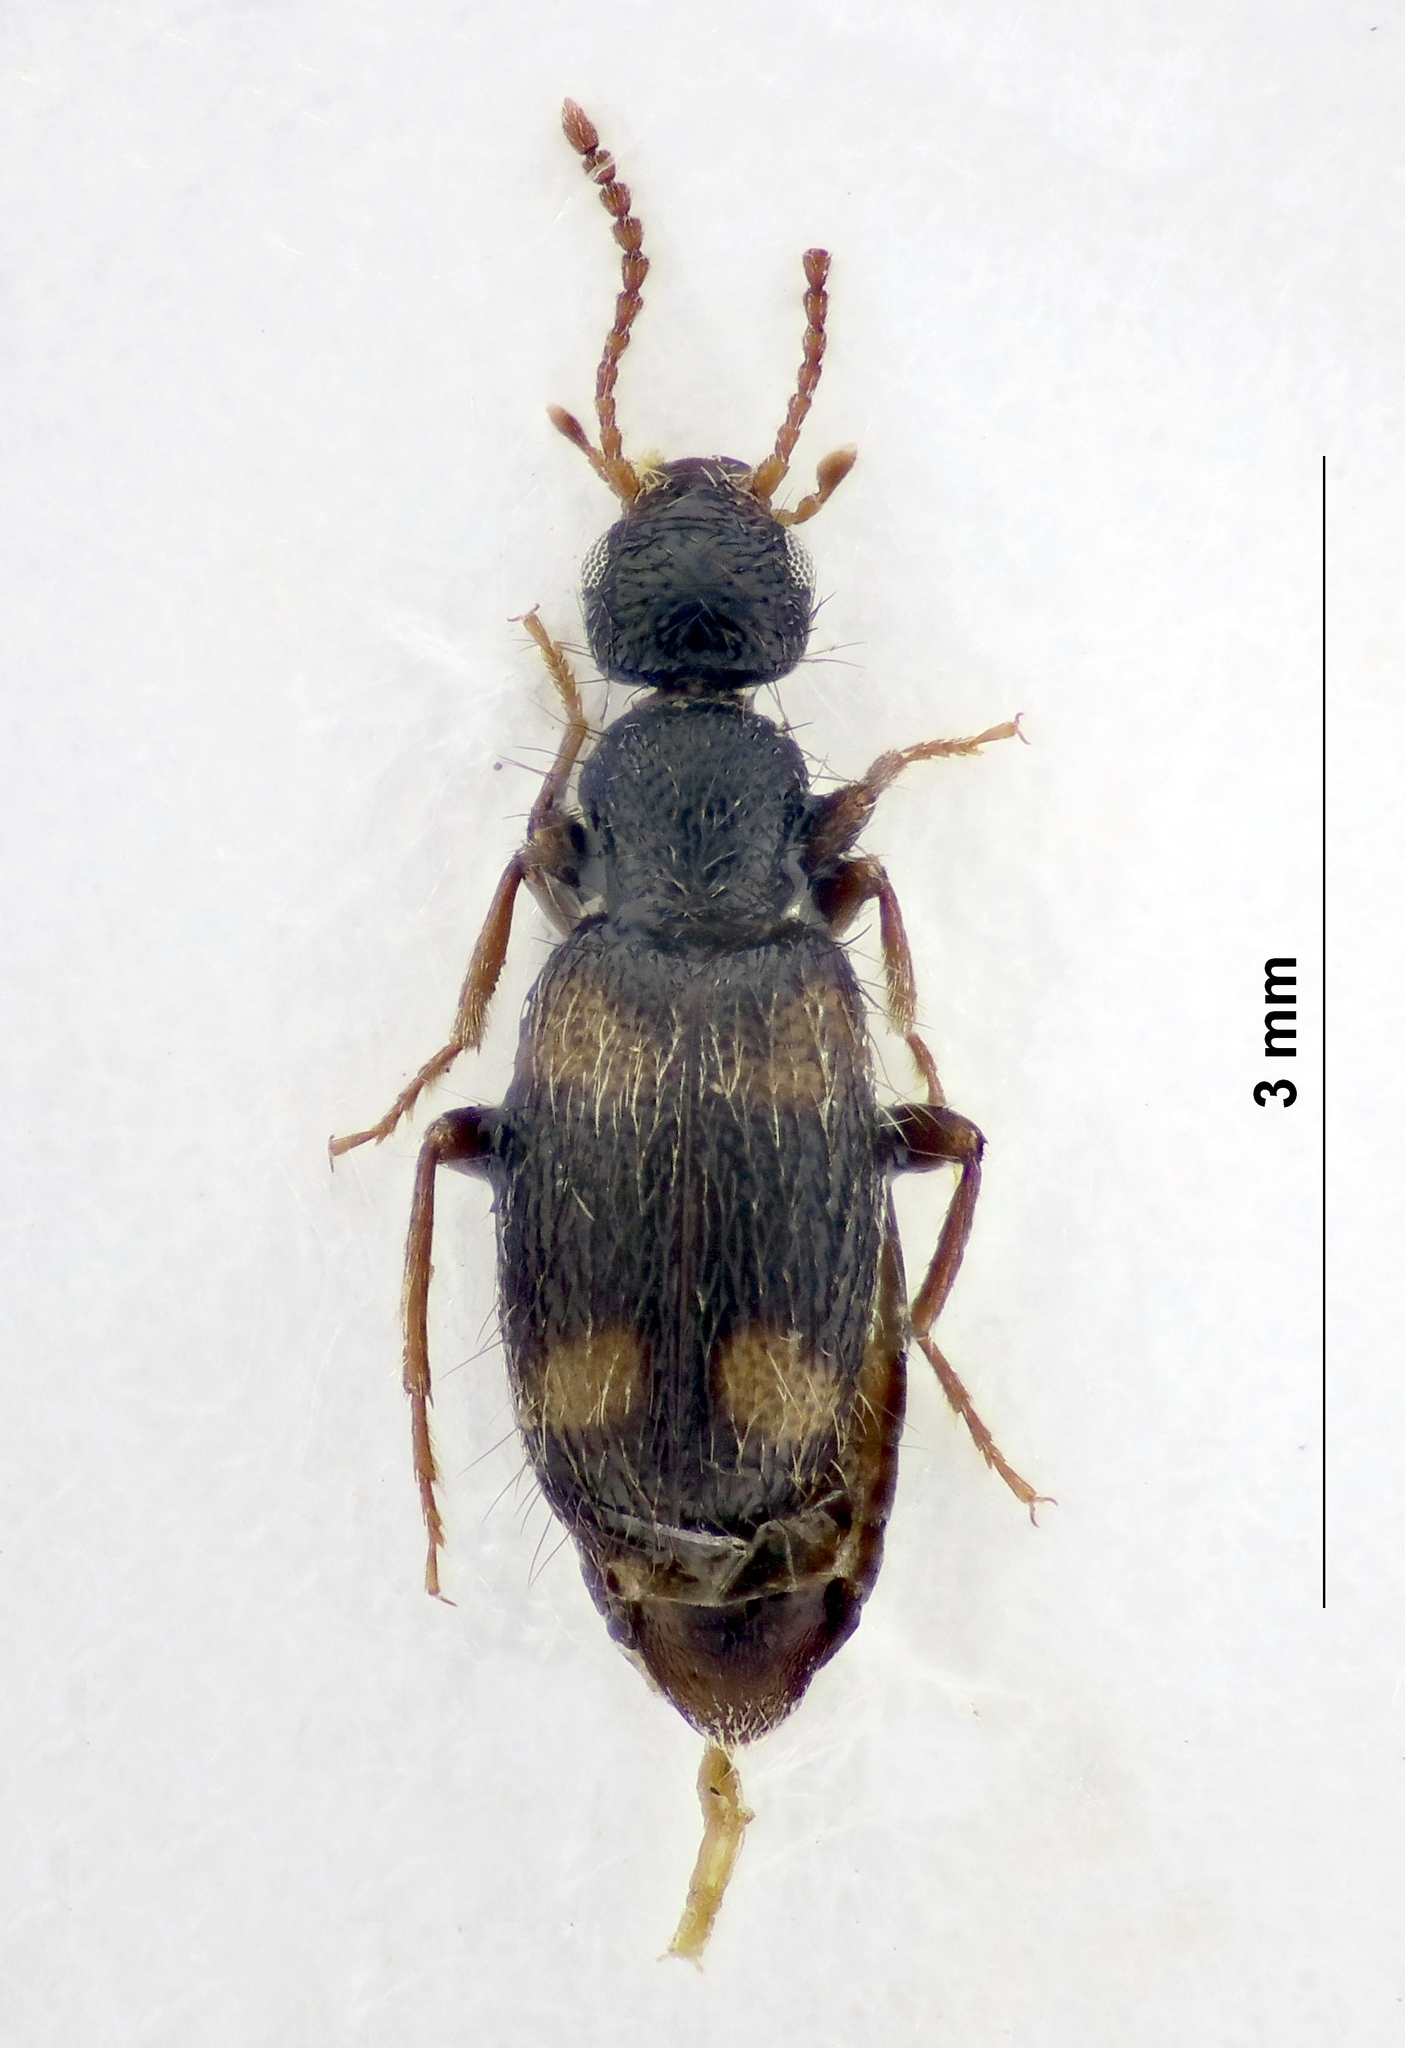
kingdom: Animalia
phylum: Arthropoda
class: Insecta
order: Coleoptera
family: Anthicidae
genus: Hirticollis
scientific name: Hirticollis Hirticomus quadriguttatus
